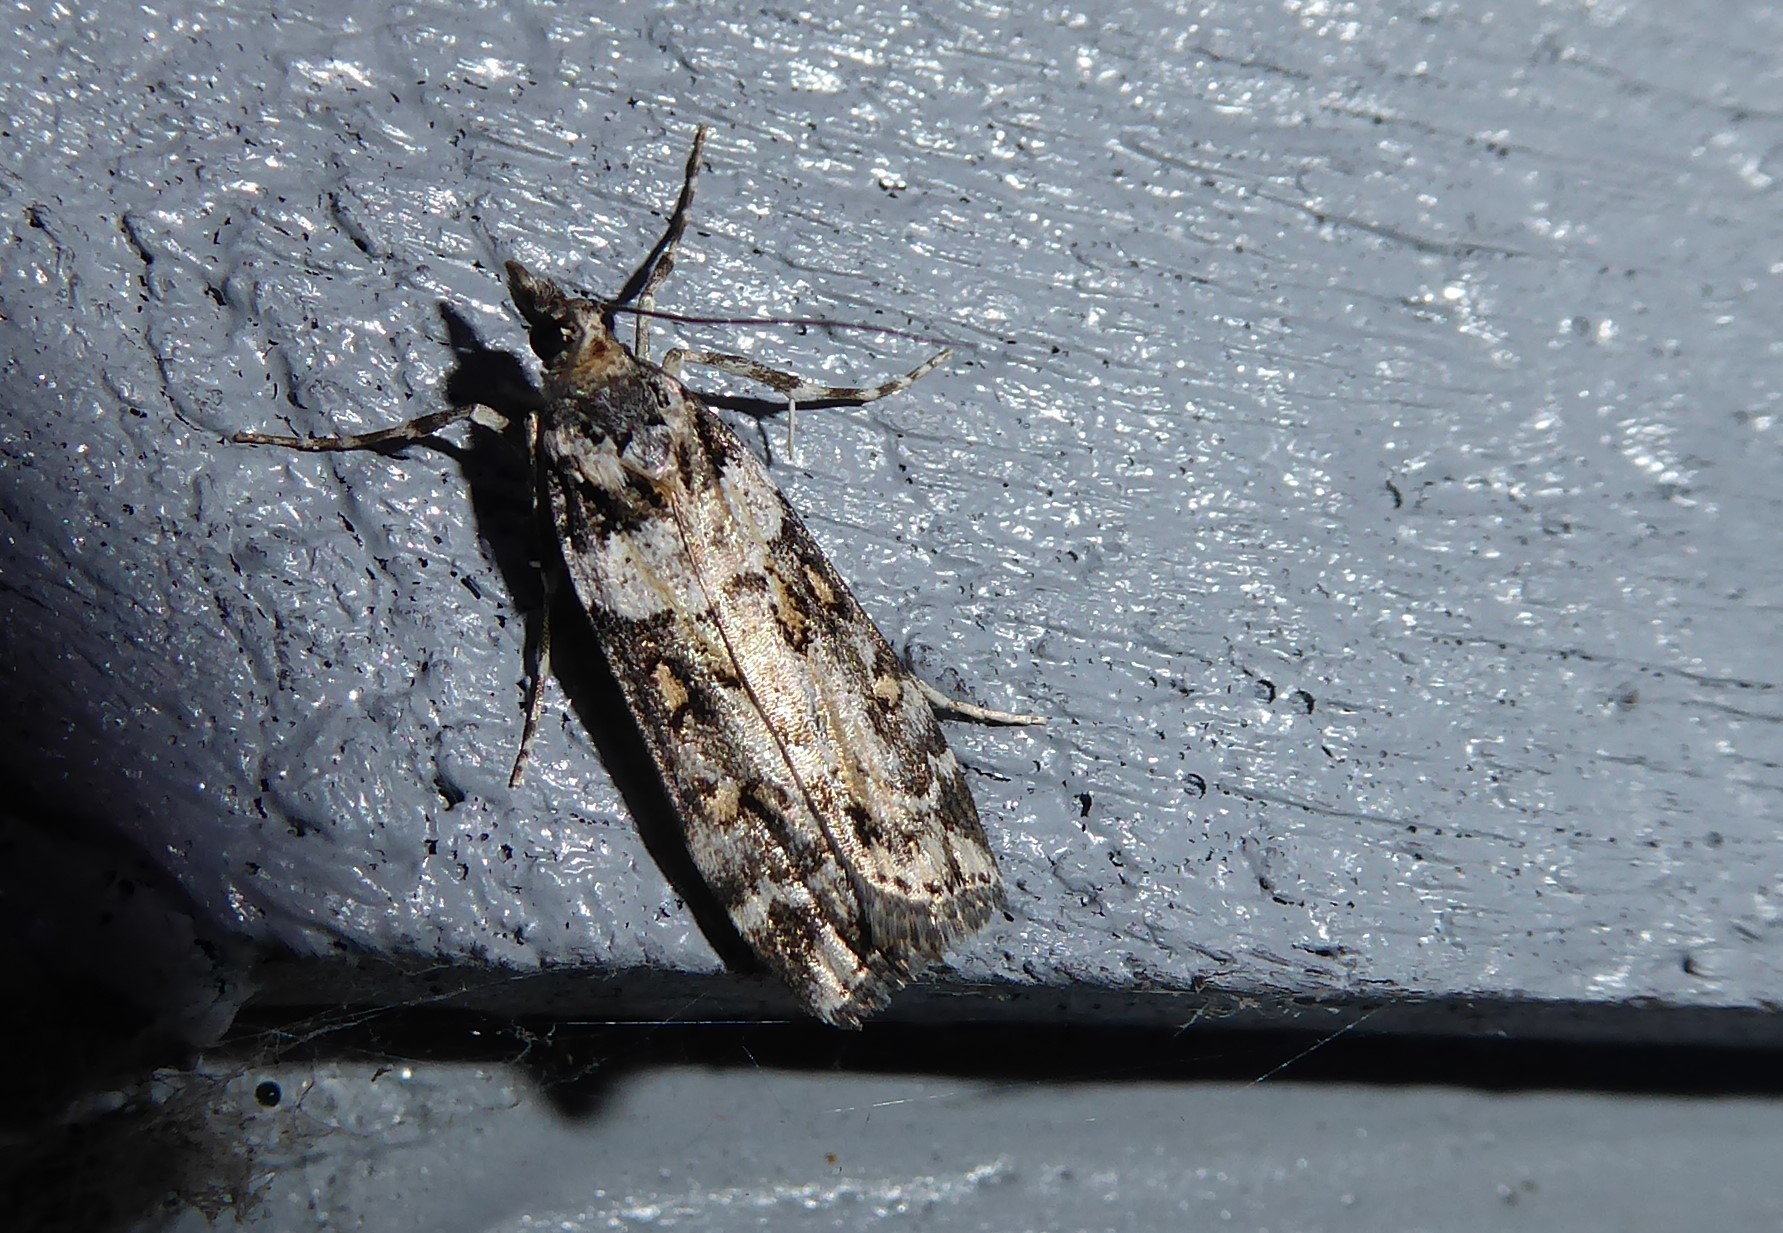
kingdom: Animalia
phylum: Arthropoda
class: Insecta
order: Lepidoptera
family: Crambidae
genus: Eudonia
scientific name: Eudonia diphtheralis
